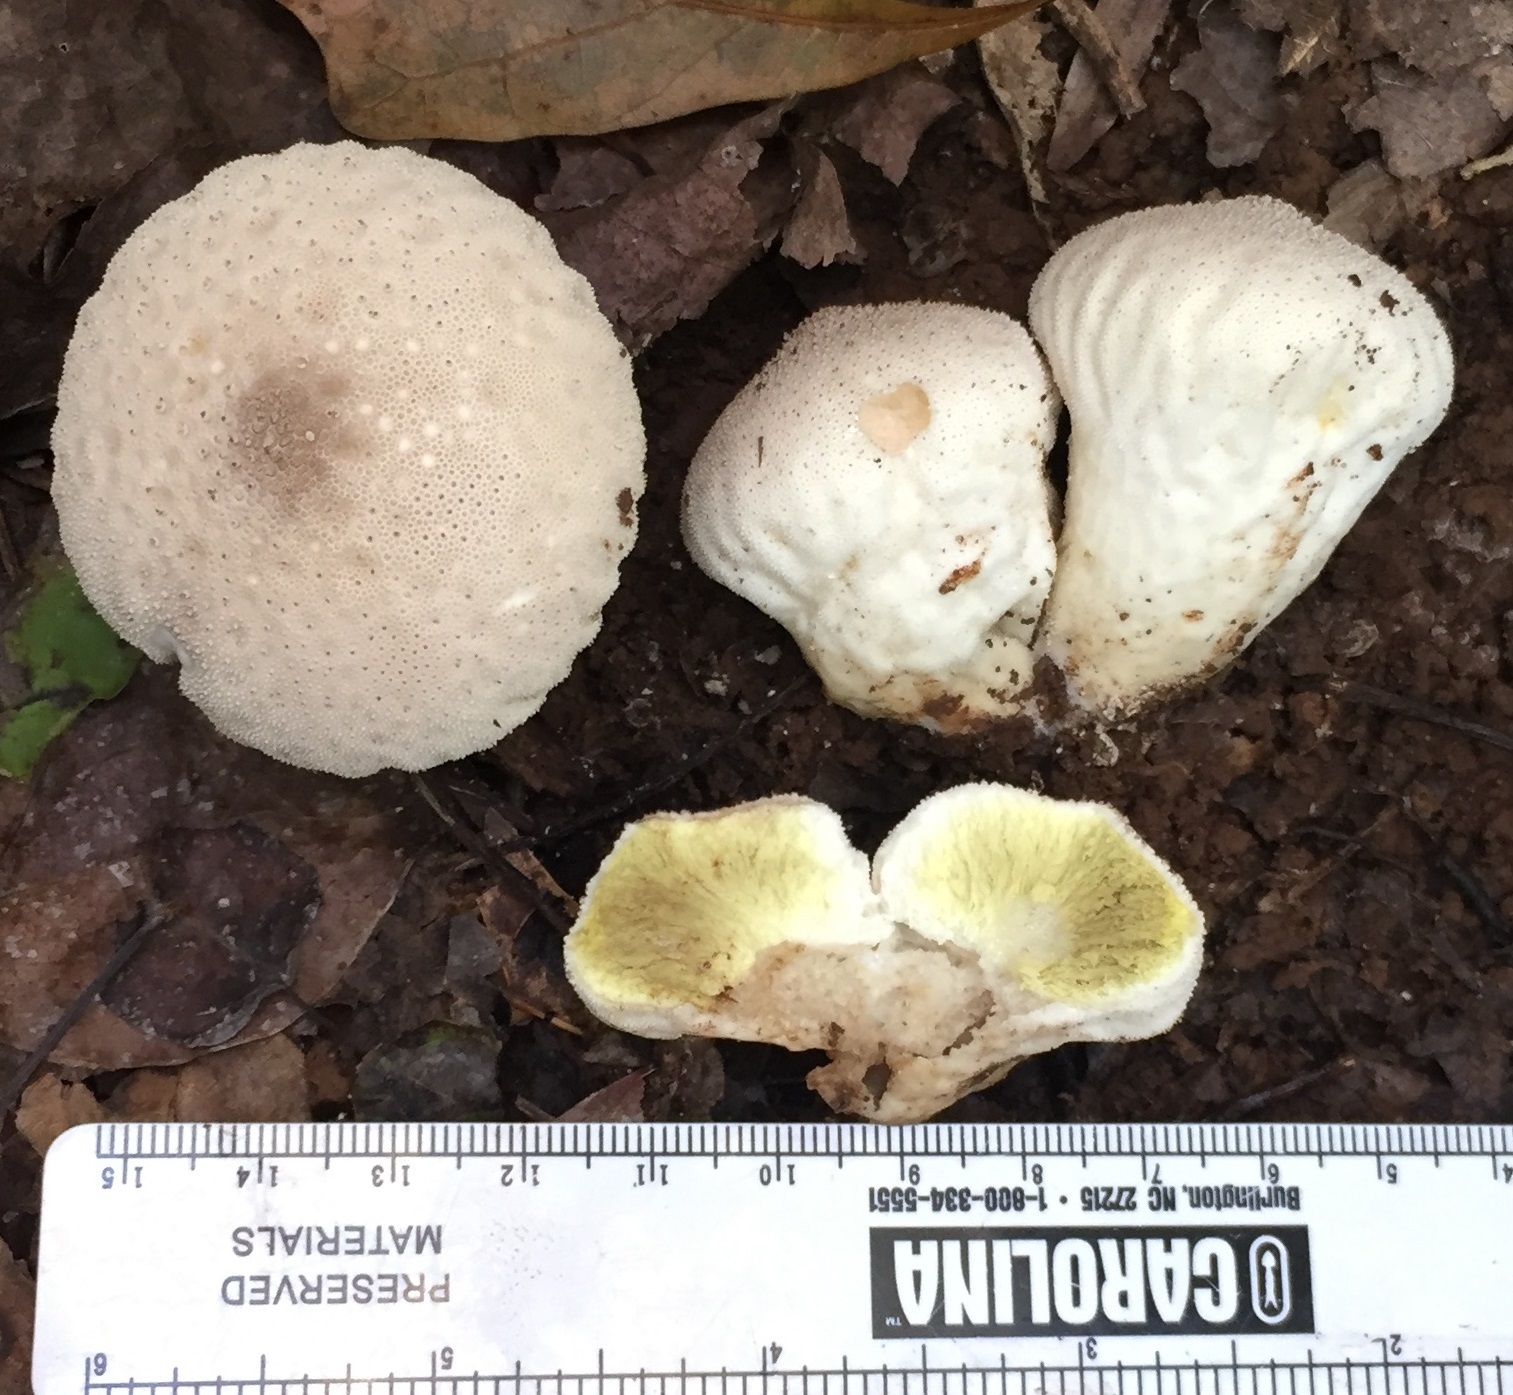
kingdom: Fungi
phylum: Basidiomycota
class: Agaricomycetes
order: Agaricales
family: Lycoperdaceae
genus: Lycoperdon
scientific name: Lycoperdon perlatum
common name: Common puffball
